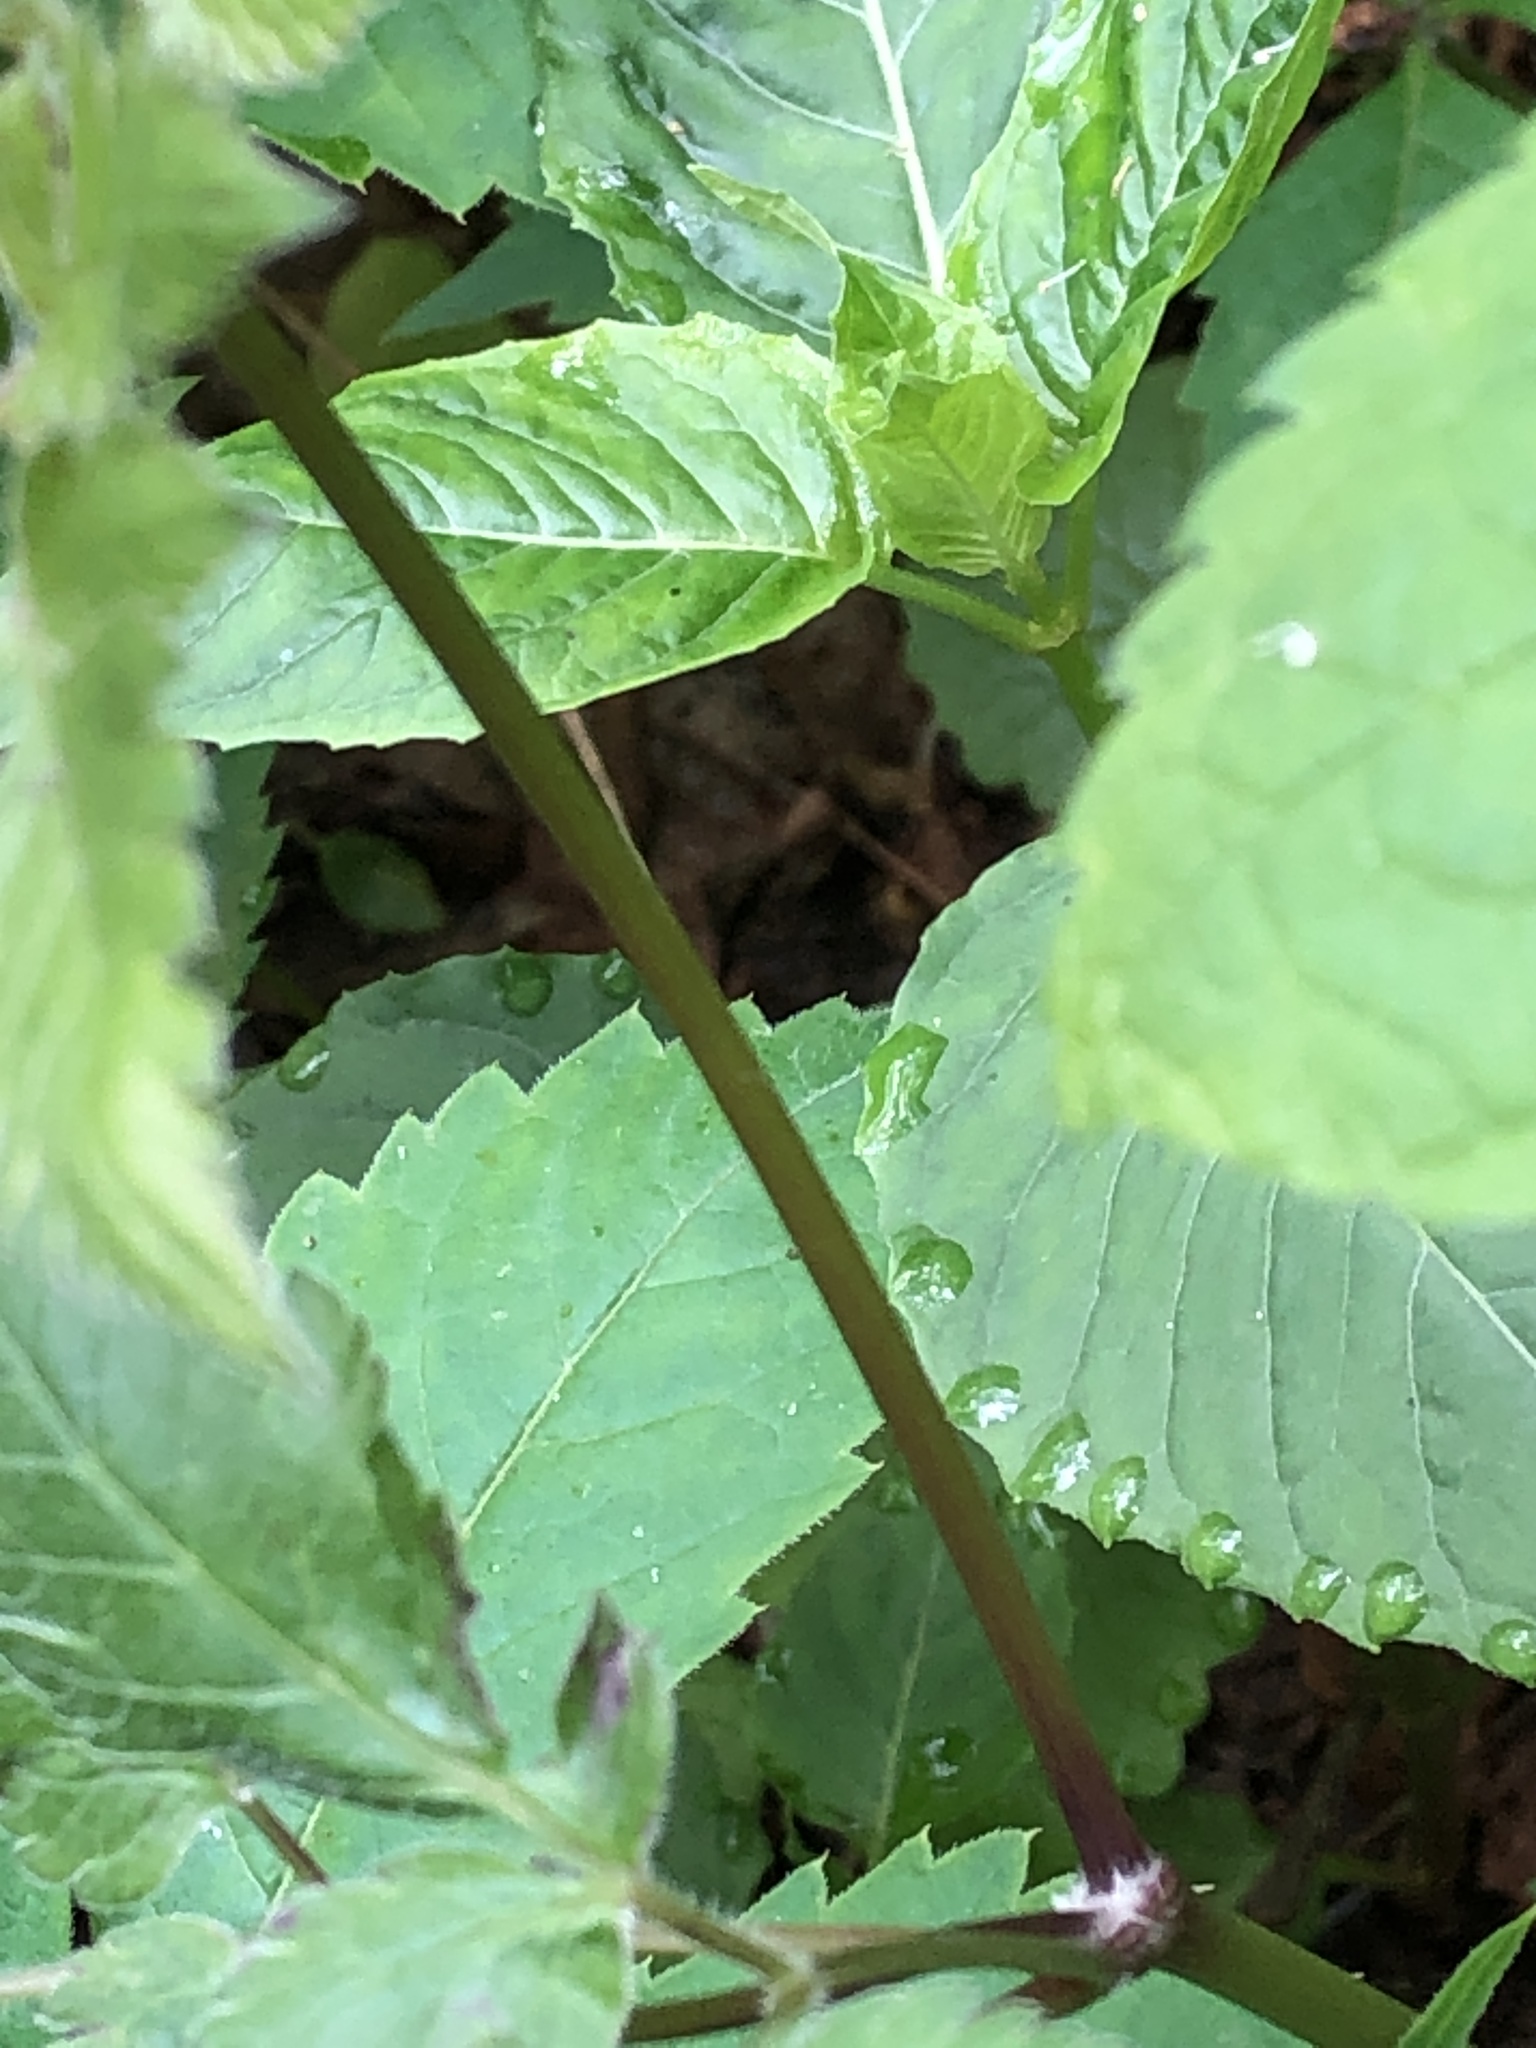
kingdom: Plantae
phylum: Tracheophyta
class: Magnoliopsida
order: Apiales
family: Apiaceae
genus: Osmorhiza
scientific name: Osmorhiza longistylis
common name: Smooth sweet cicely
